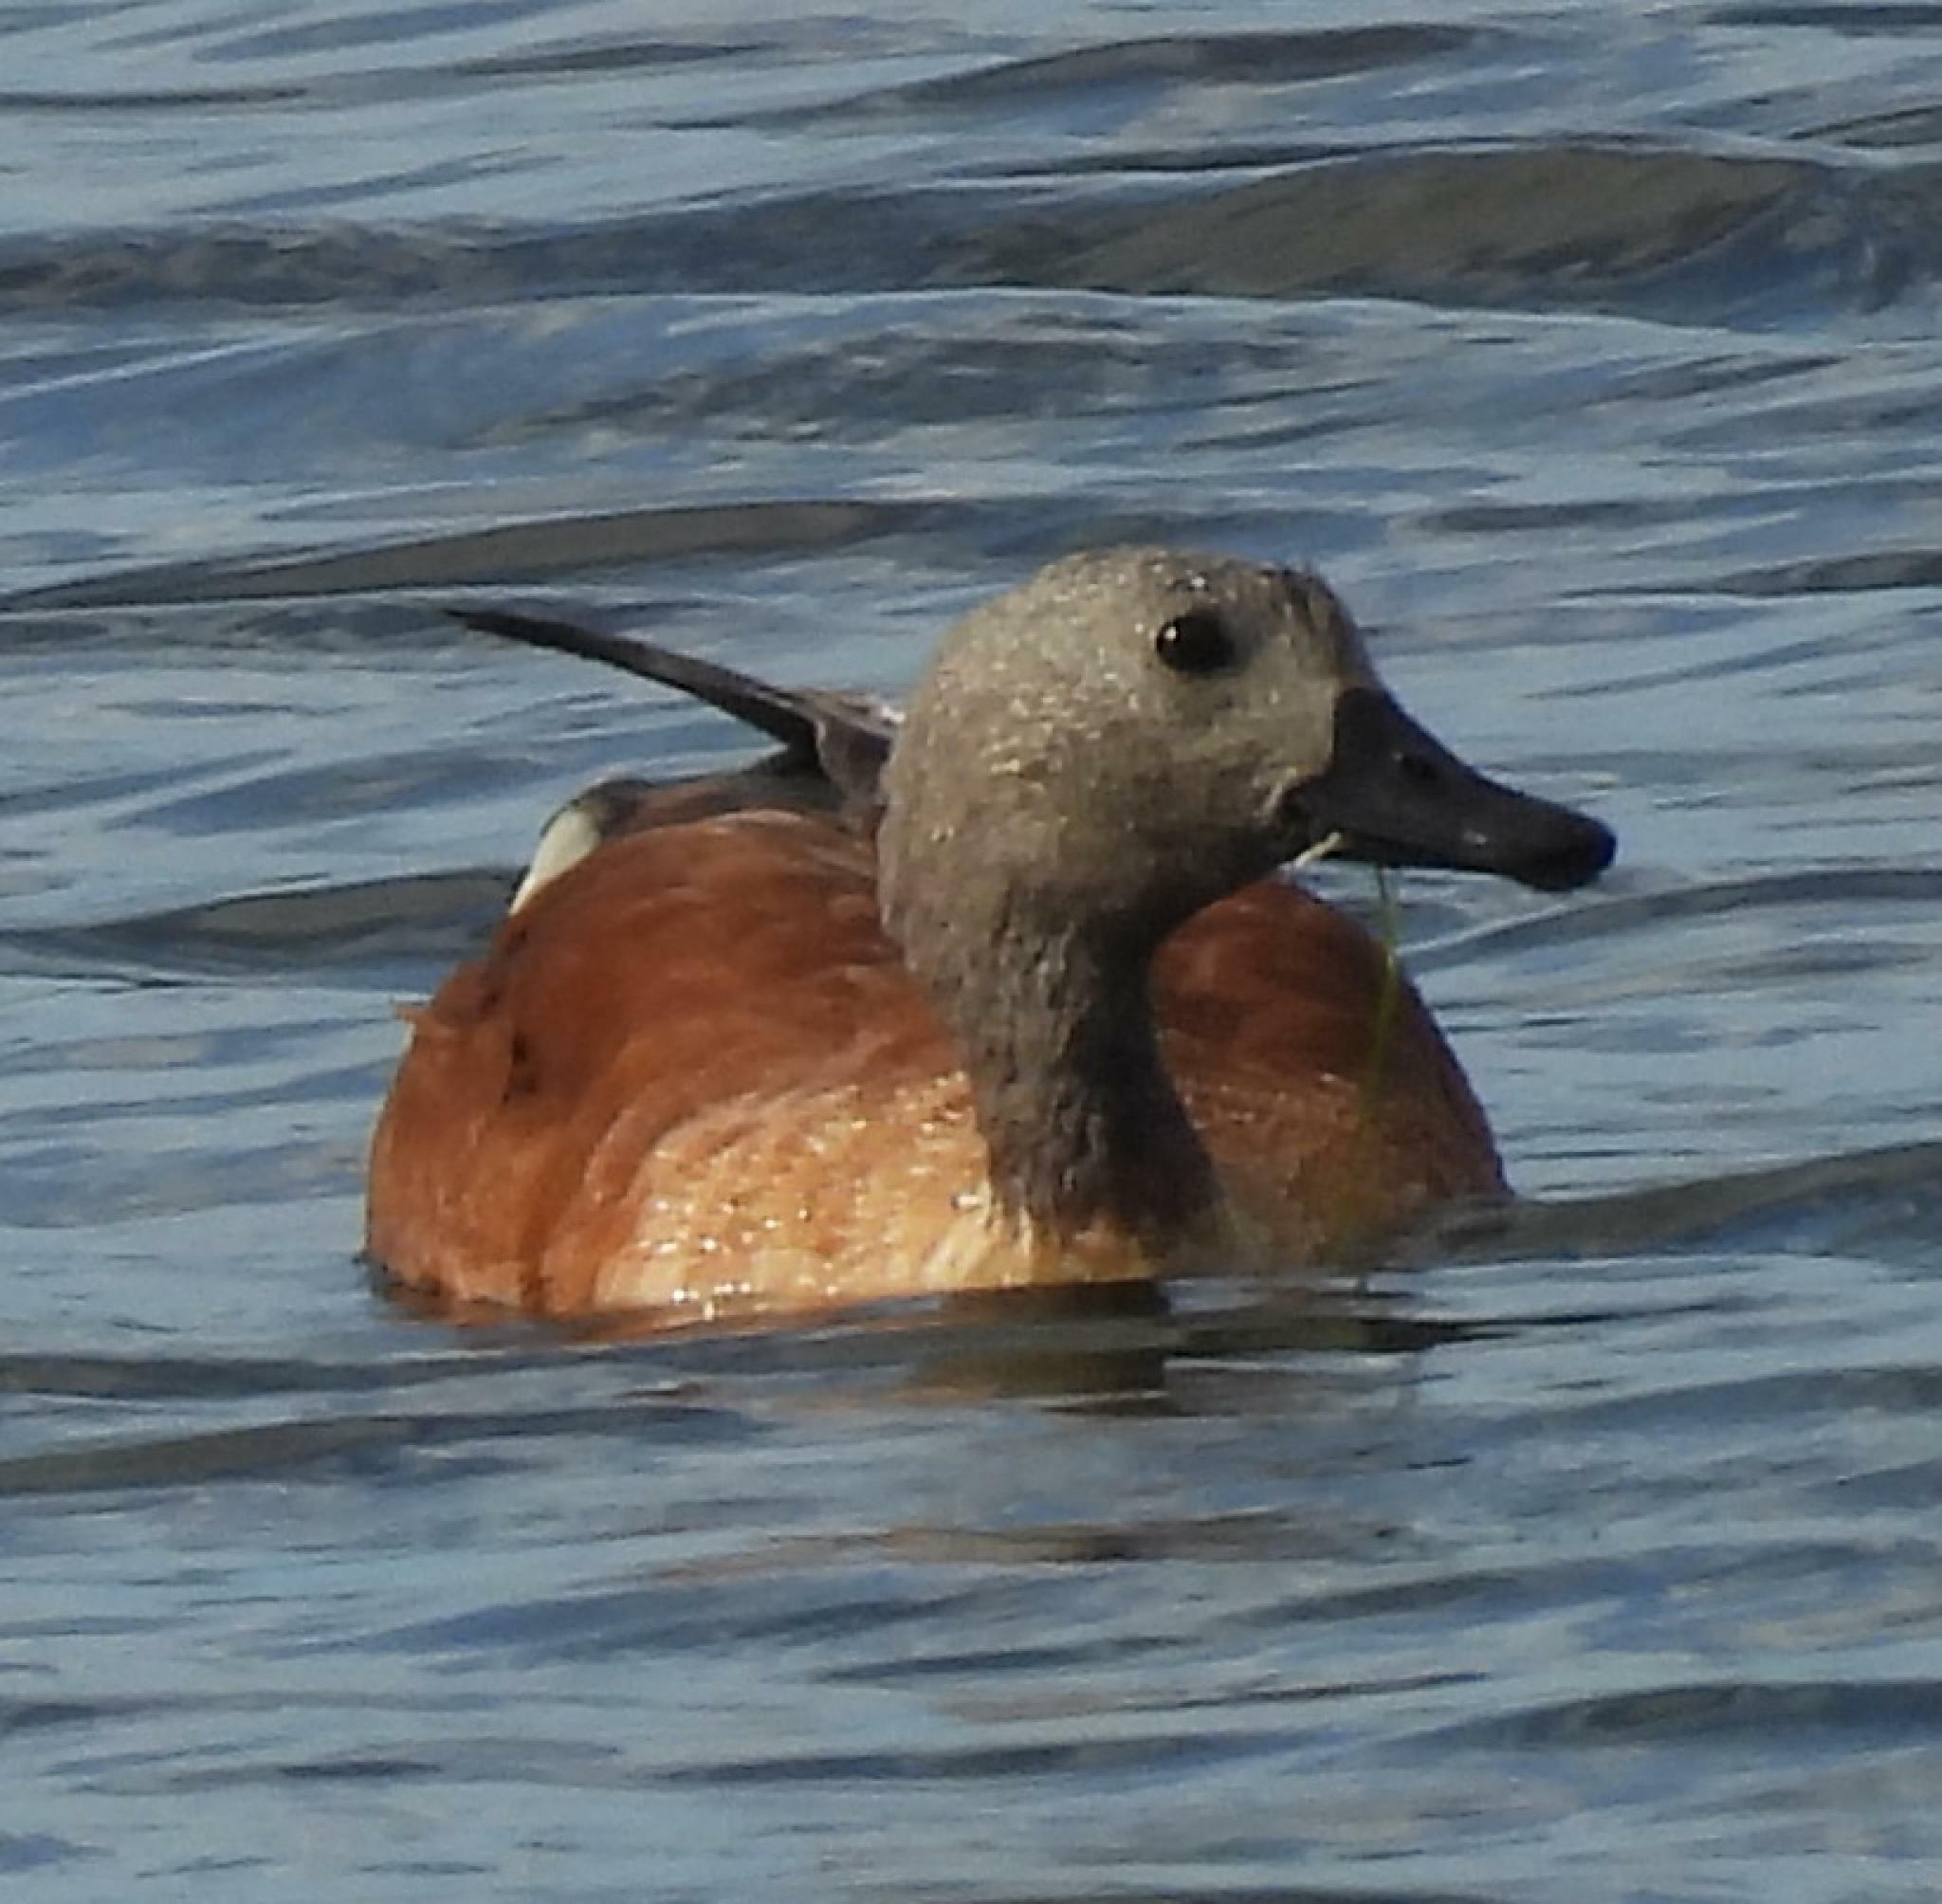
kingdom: Animalia
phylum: Chordata
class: Aves
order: Anseriformes
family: Anatidae
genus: Tadorna
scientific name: Tadorna cana
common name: South african shelduck
